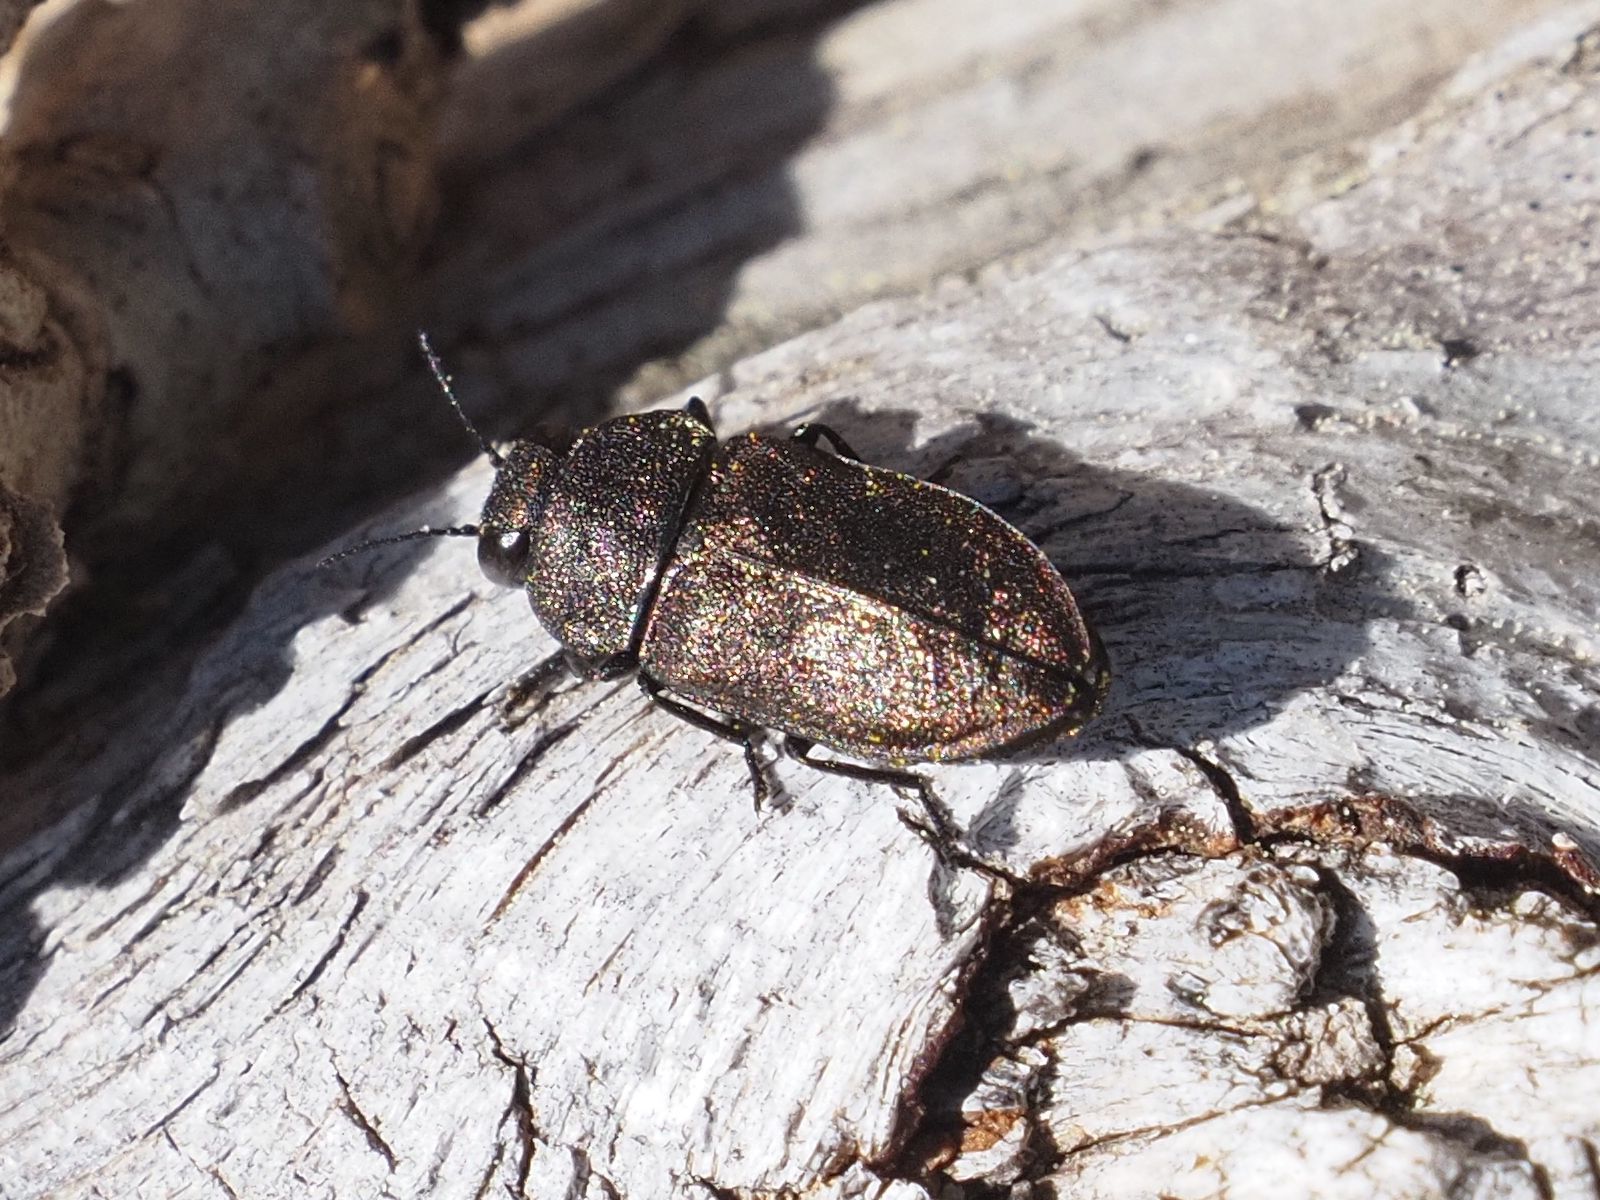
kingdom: Animalia
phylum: Arthropoda
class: Insecta
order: Coleoptera
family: Buprestidae
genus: Anthaxia
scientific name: Anthaxia helvetica
